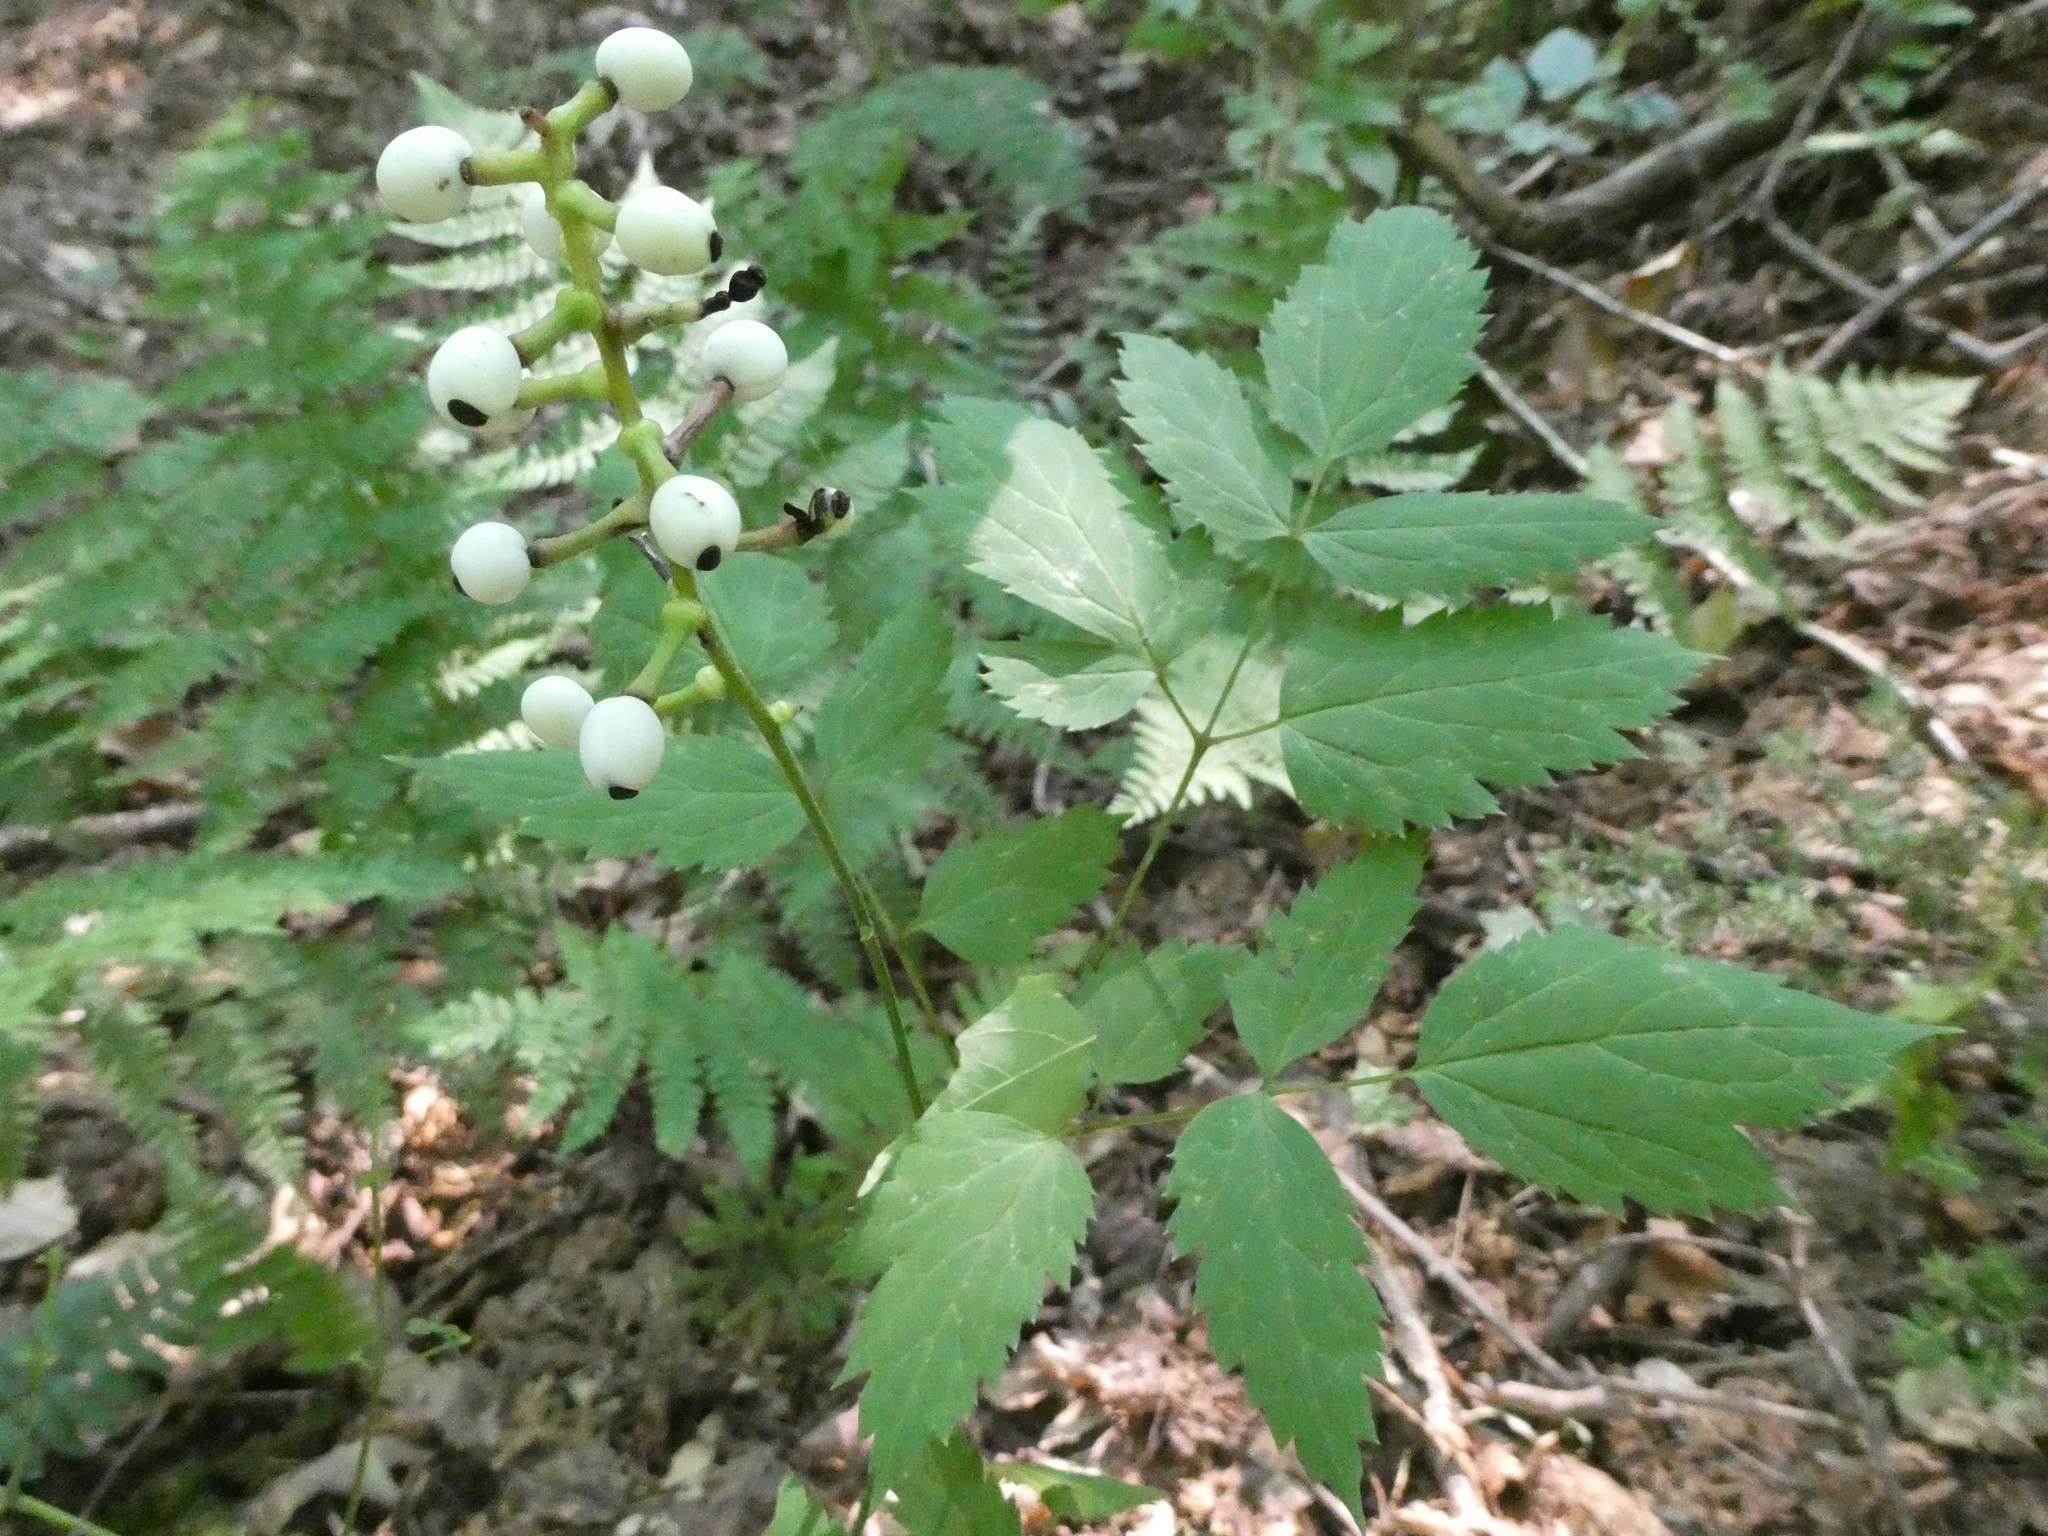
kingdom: Plantae
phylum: Tracheophyta
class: Magnoliopsida
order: Ranunculales
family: Ranunculaceae
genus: Actaea
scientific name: Actaea pachypoda
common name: Doll's-eyes
